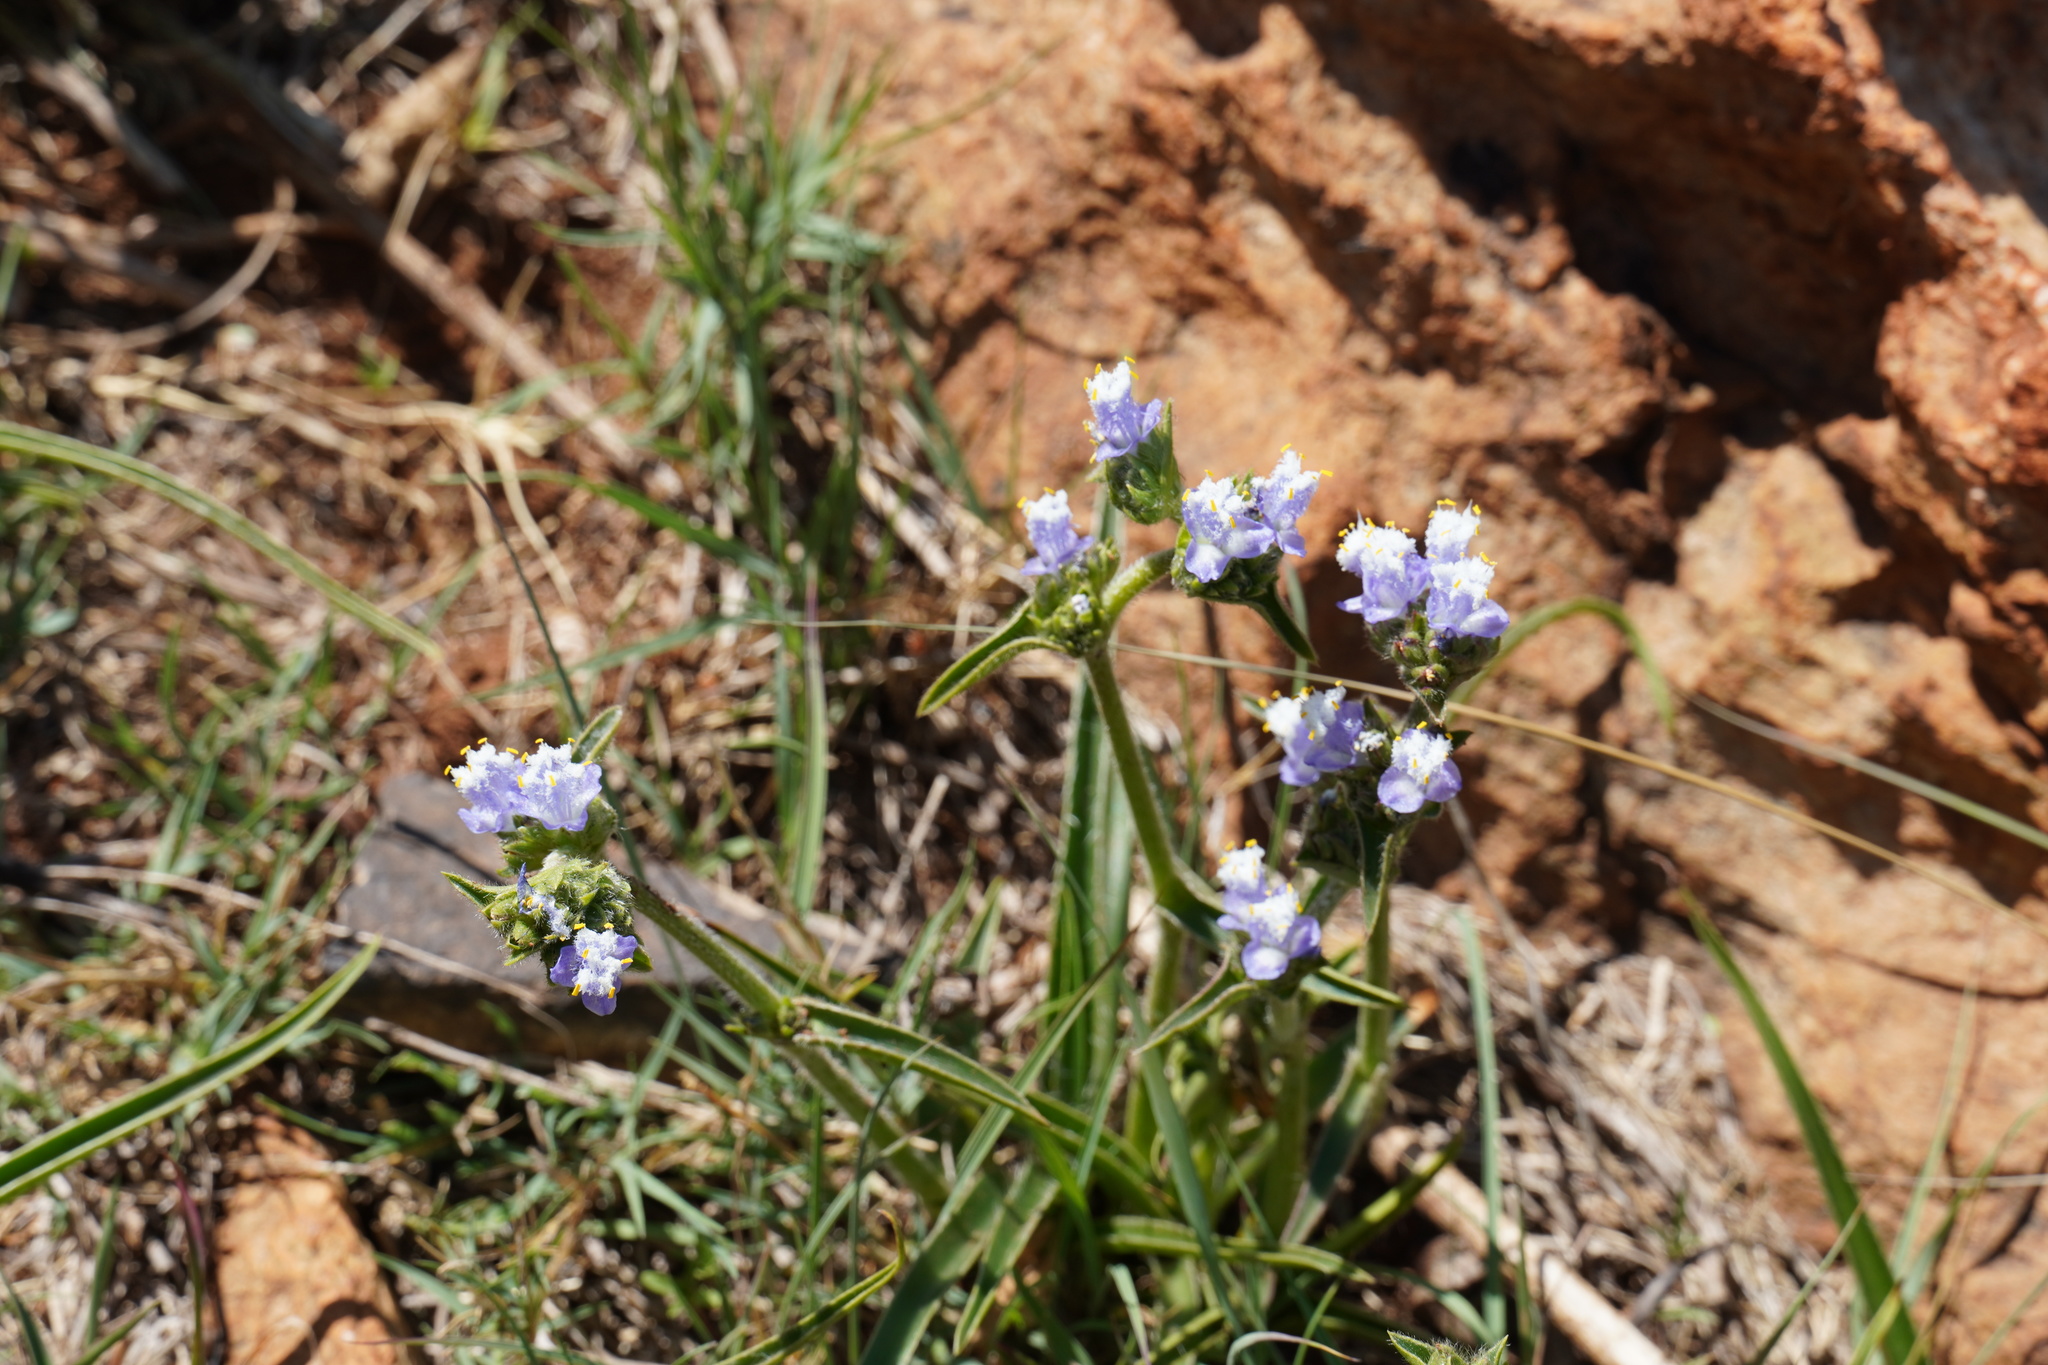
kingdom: Plantae
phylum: Tracheophyta
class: Liliopsida
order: Commelinales
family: Commelinaceae
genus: Cyanotis
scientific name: Cyanotis speciosa
